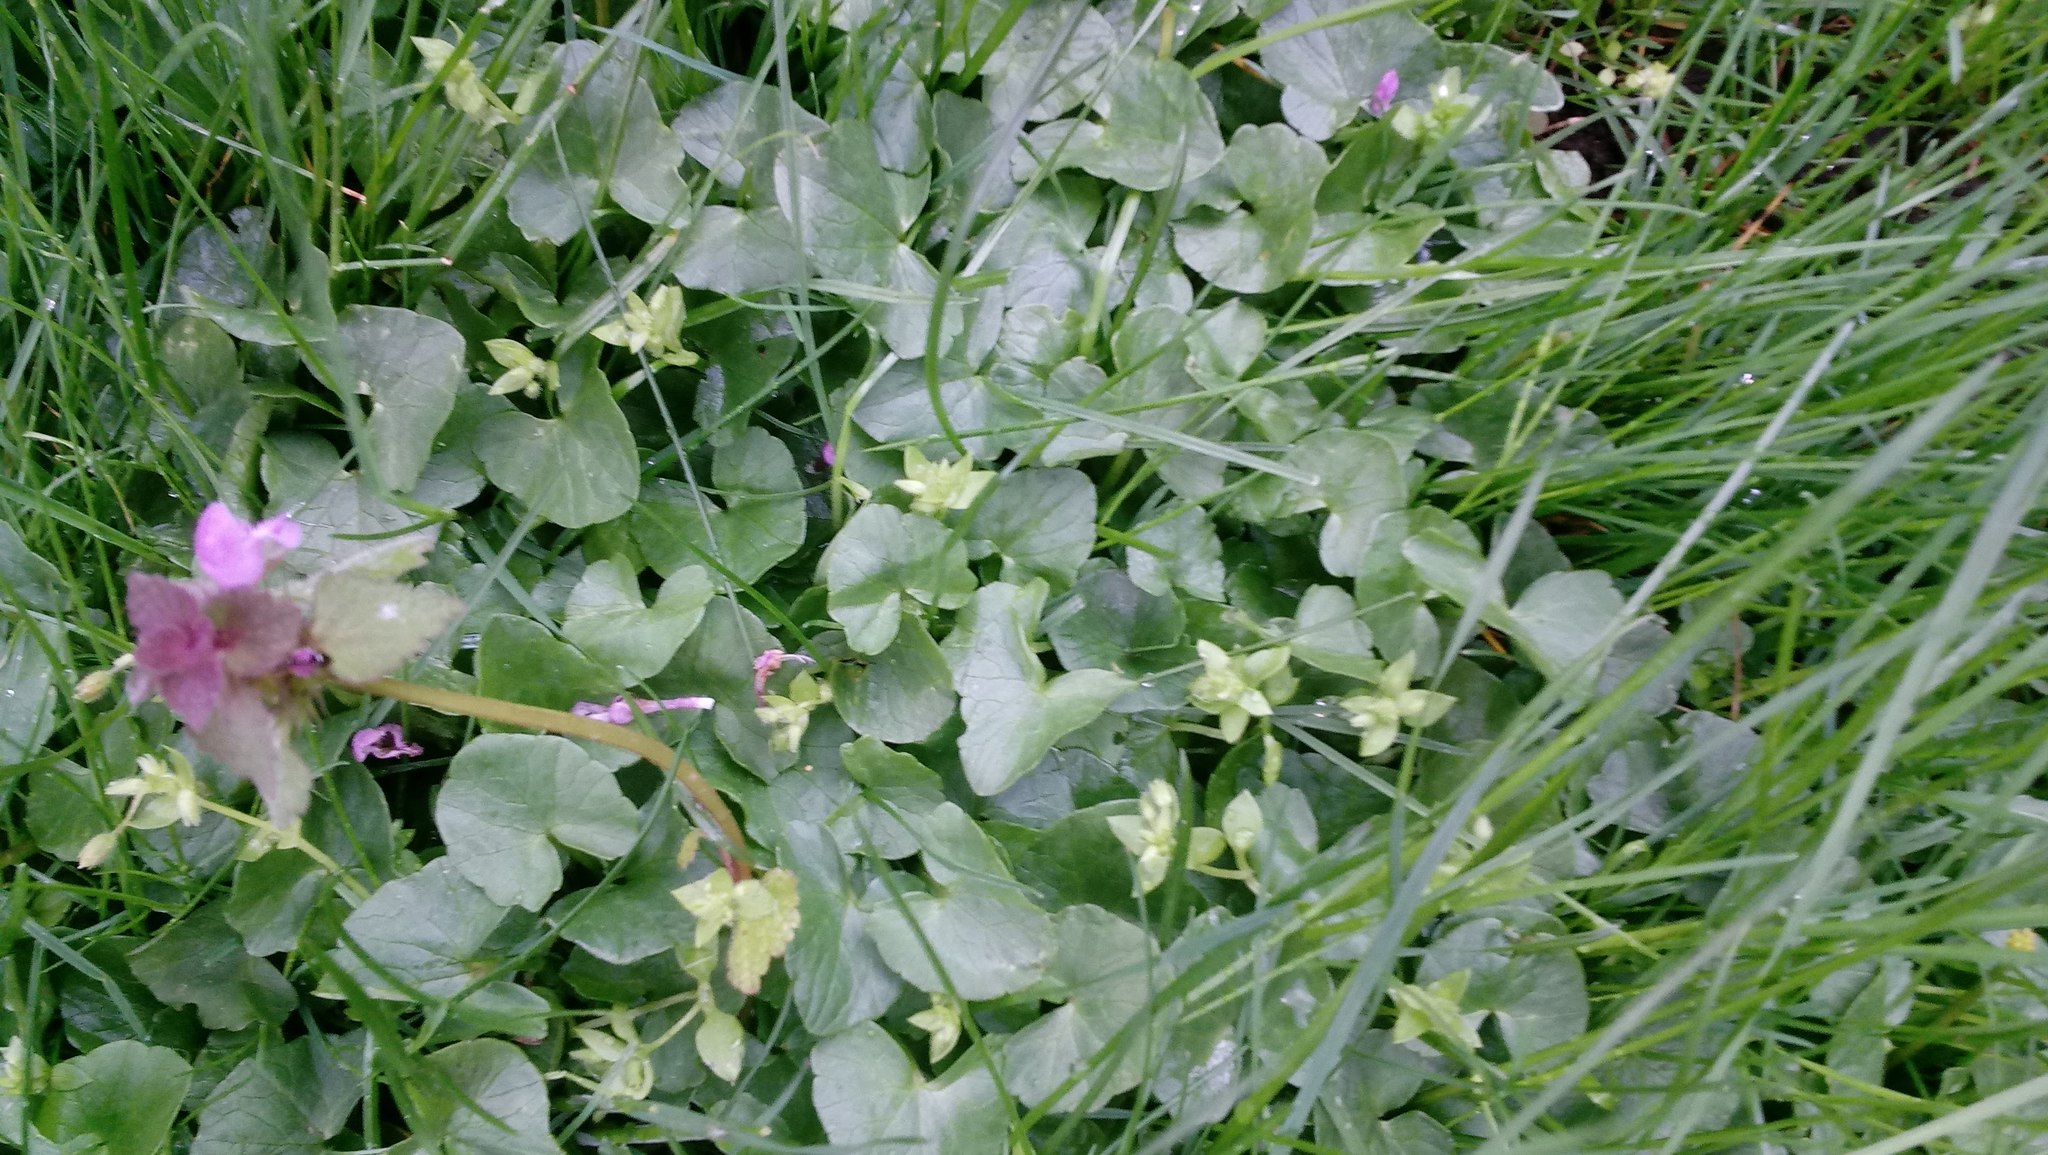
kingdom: Plantae
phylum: Tracheophyta
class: Magnoliopsida
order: Ranunculales
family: Ranunculaceae
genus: Ficaria
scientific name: Ficaria verna
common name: Lesser celandine
